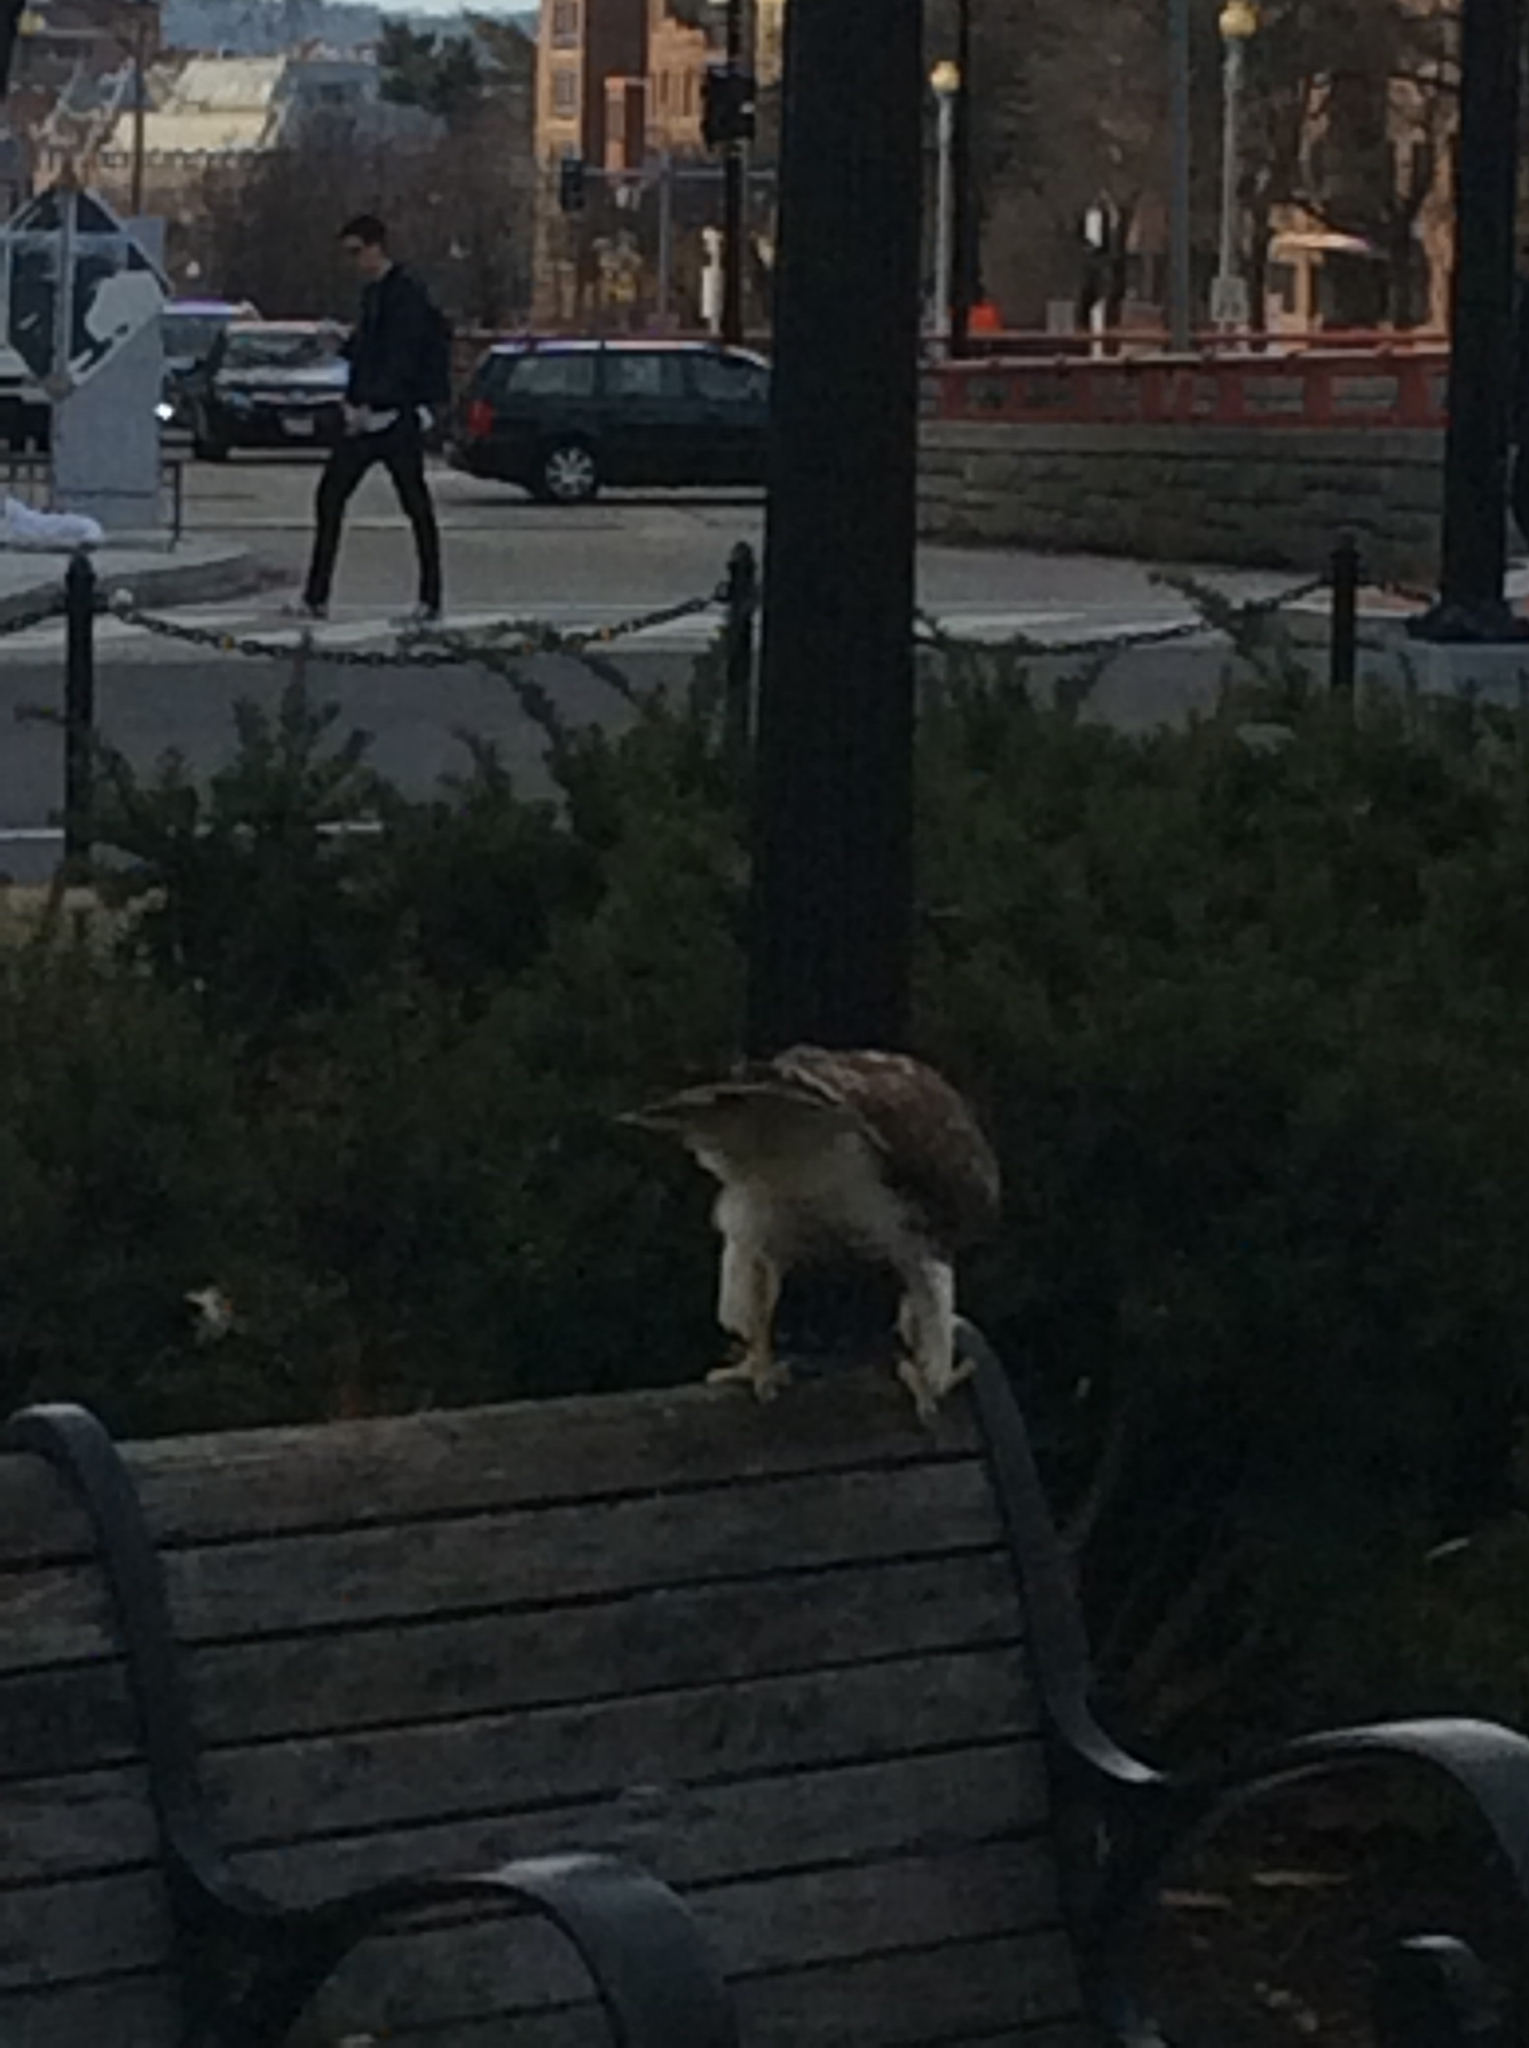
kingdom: Animalia
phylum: Chordata
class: Aves
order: Accipitriformes
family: Accipitridae
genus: Buteo
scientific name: Buteo jamaicensis
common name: Red-tailed hawk
